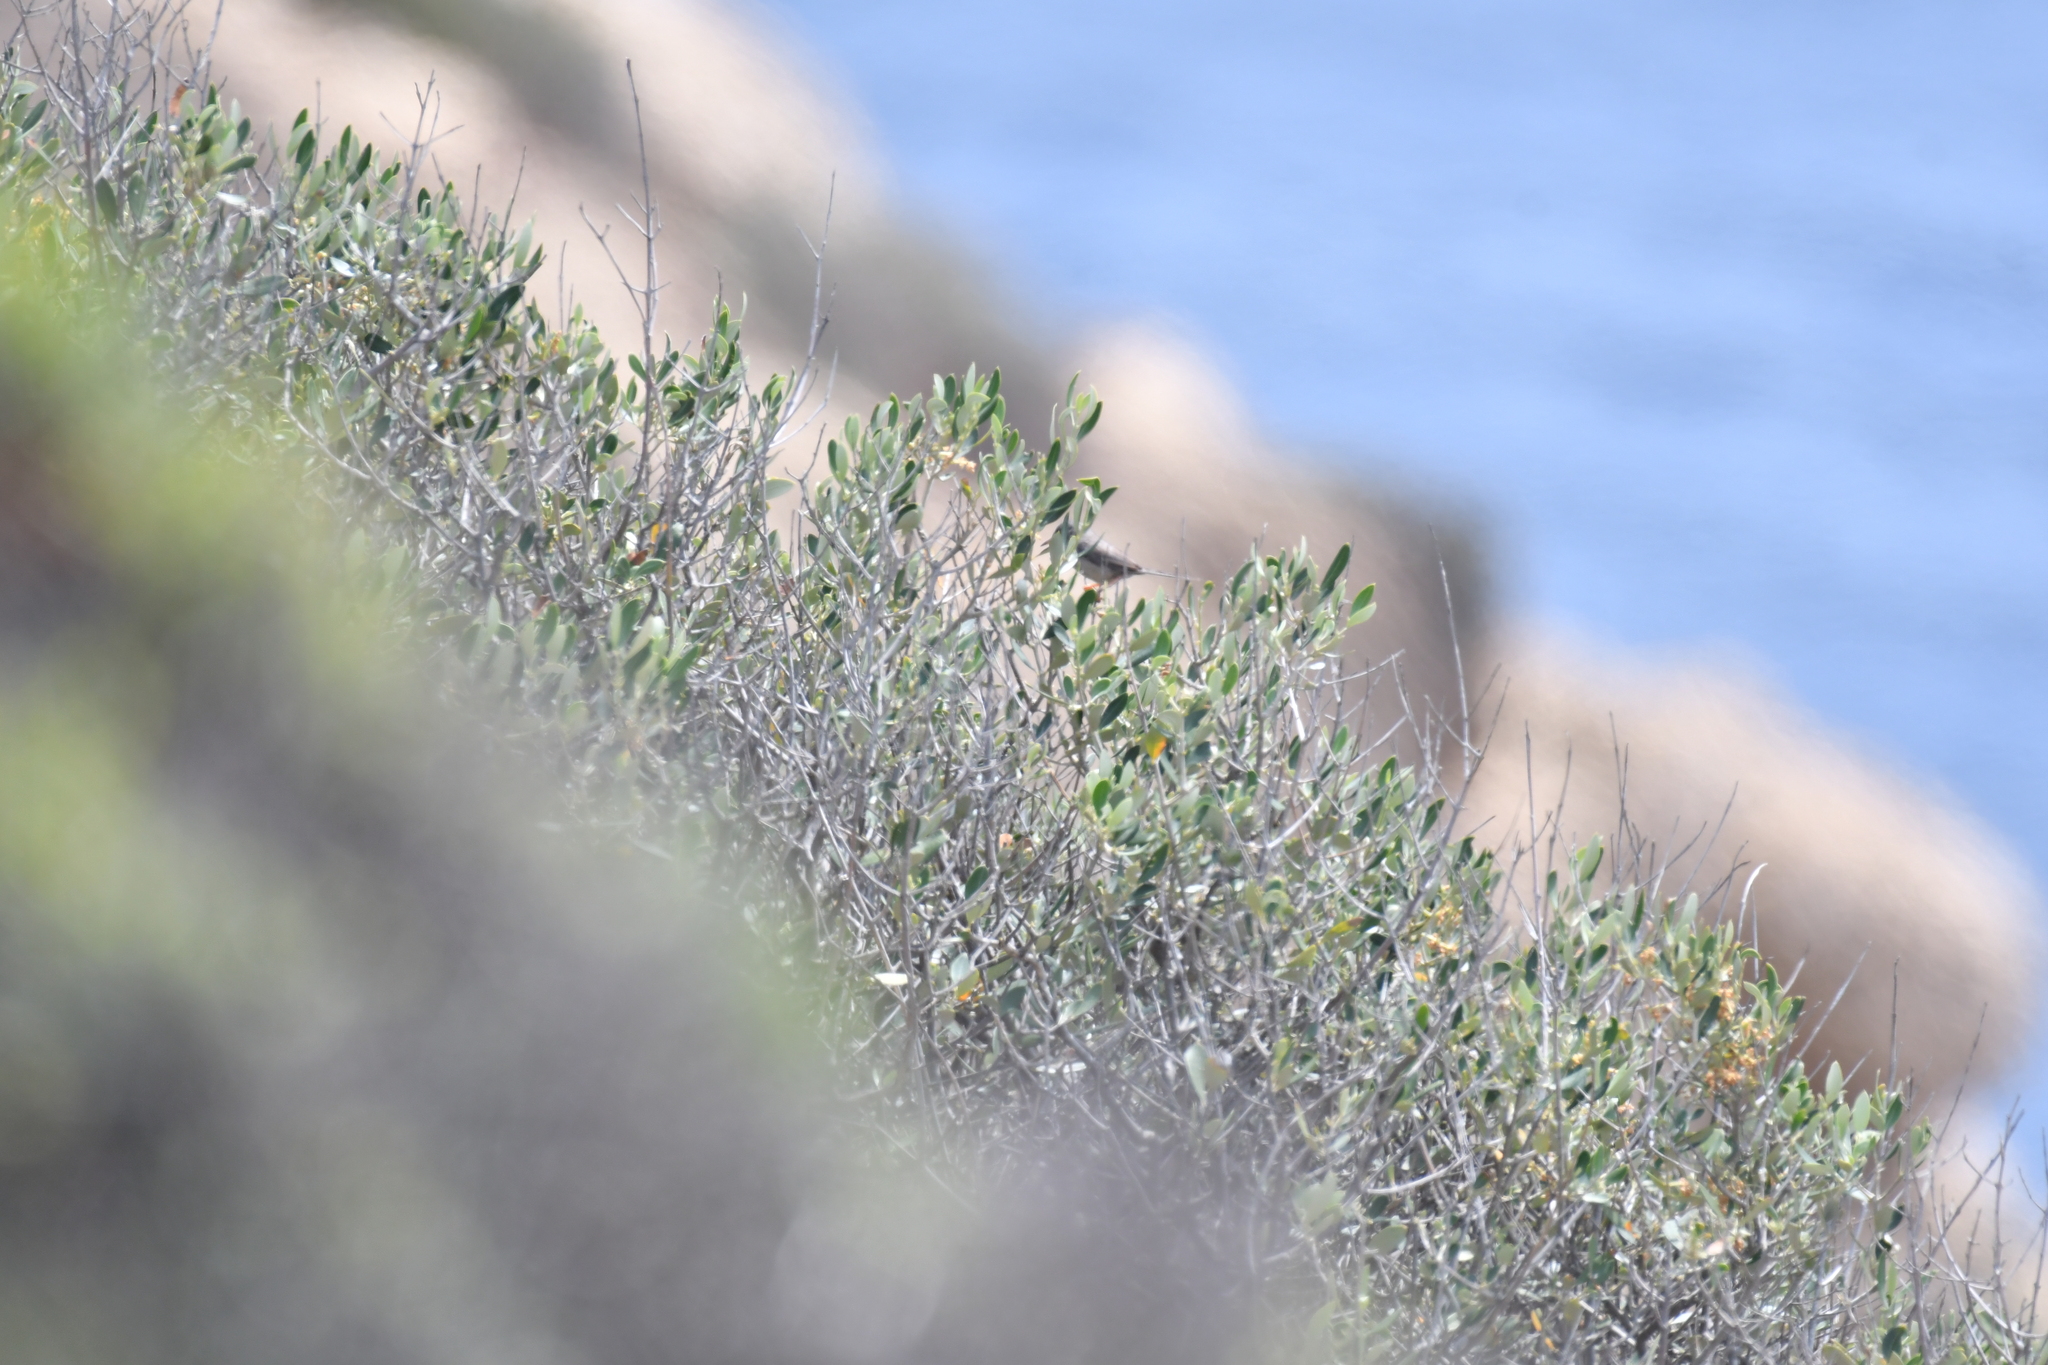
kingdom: Animalia
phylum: Chordata
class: Aves
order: Passeriformes
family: Sylviidae
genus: Curruca
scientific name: Curruca balearica
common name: Balearic warbler
